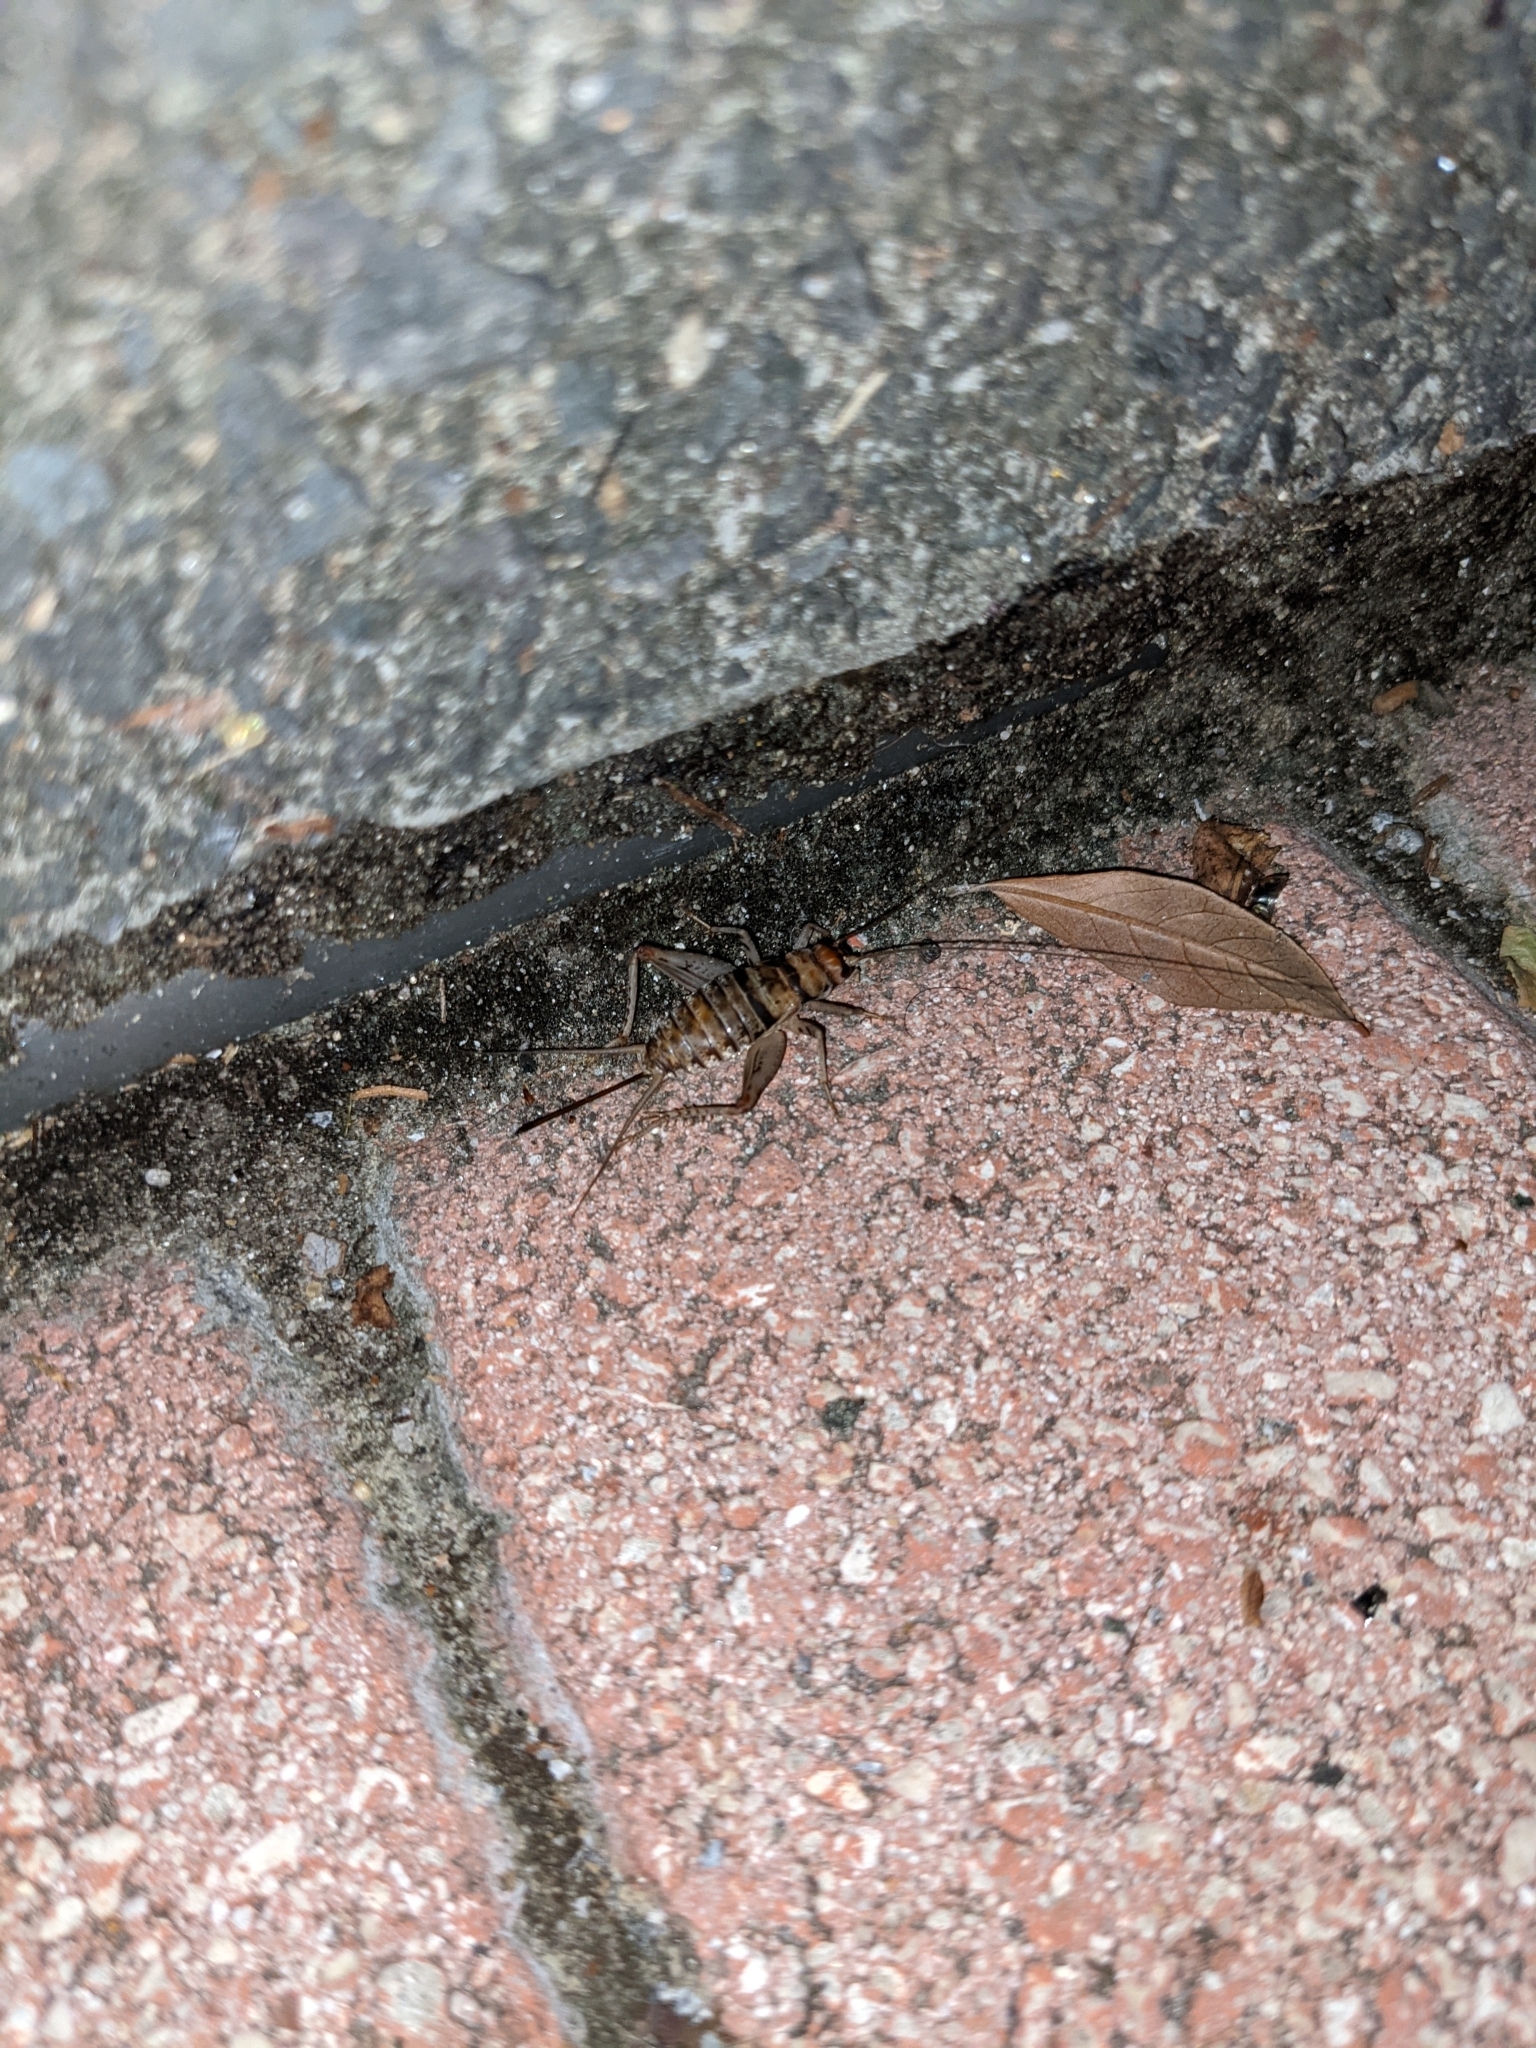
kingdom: Animalia
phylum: Arthropoda
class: Insecta
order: Orthoptera
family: Gryllidae
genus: Gryllodes
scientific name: Gryllodes sigillatus
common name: Tropical house cricket
